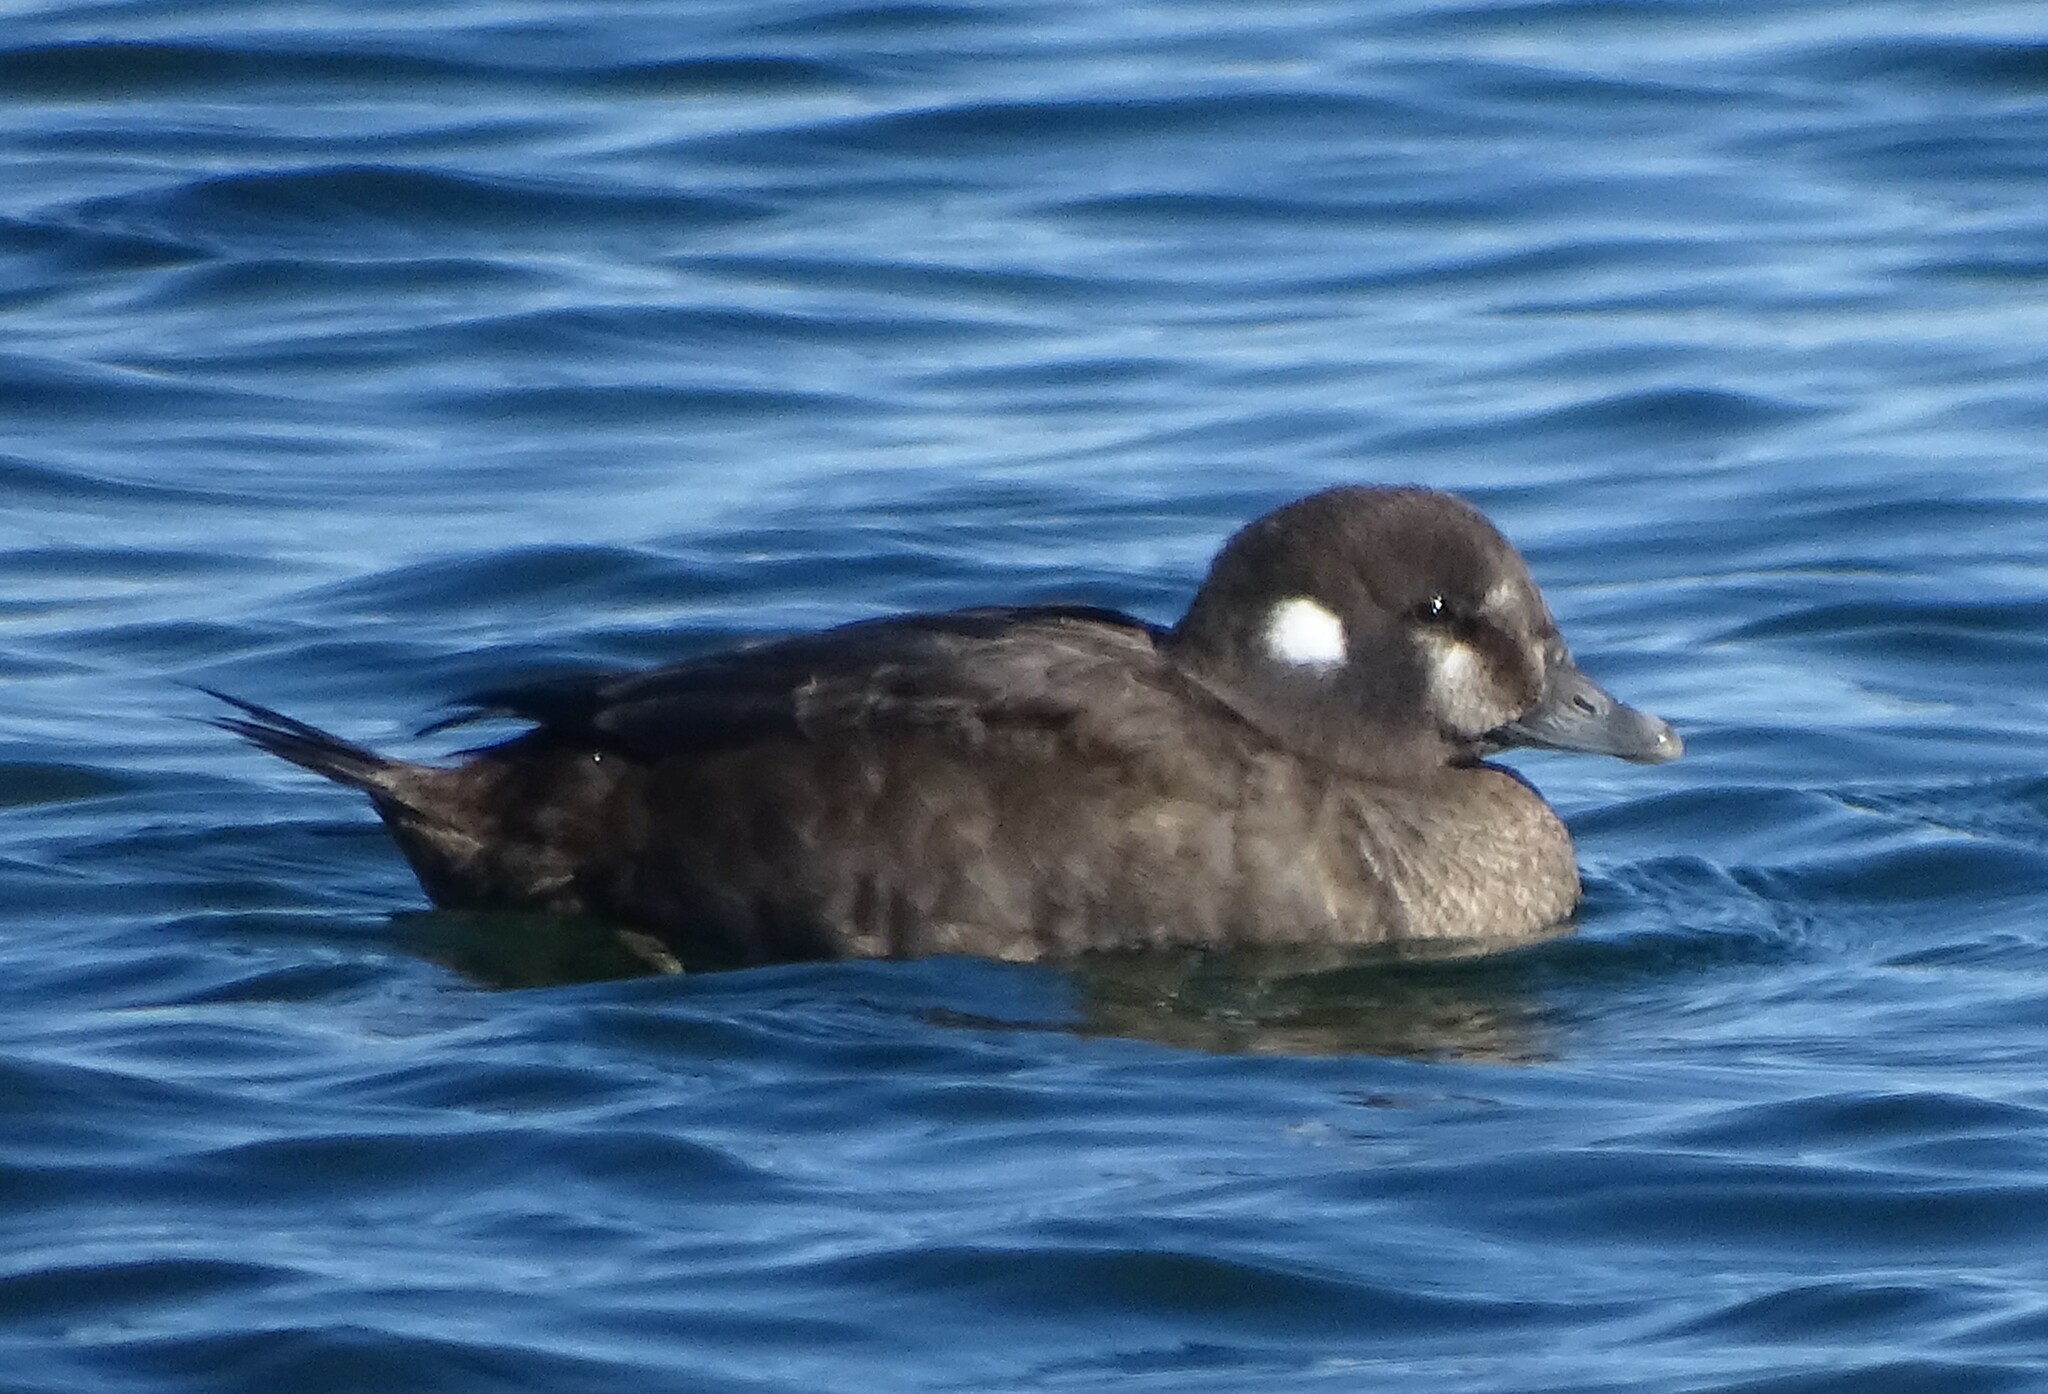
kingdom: Animalia
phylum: Chordata
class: Aves
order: Anseriformes
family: Anatidae
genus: Histrionicus
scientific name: Histrionicus histrionicus
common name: Harlequin duck
